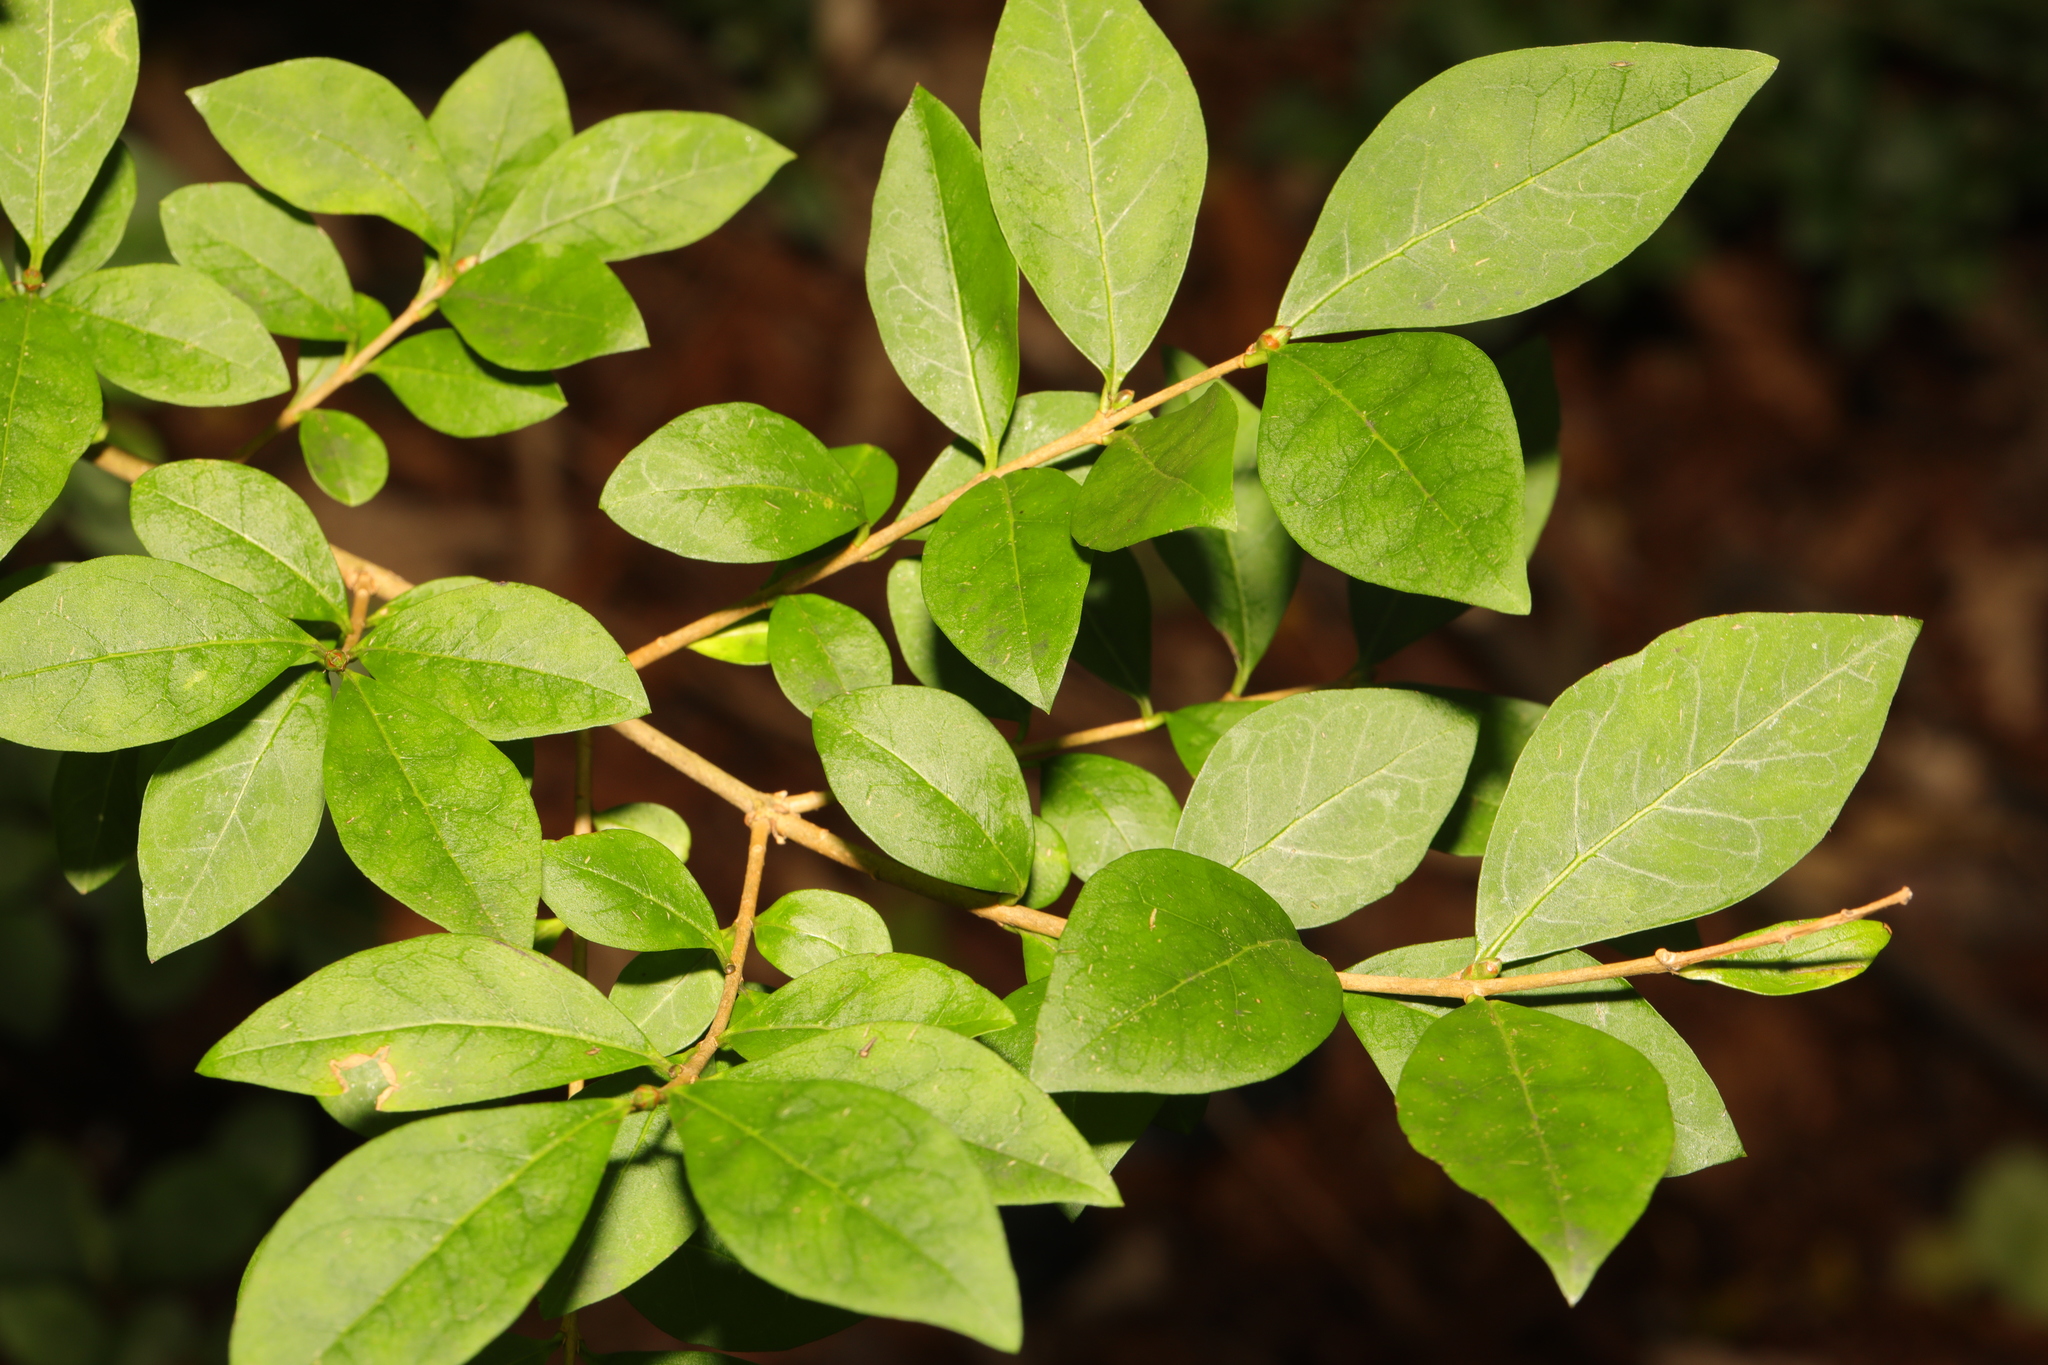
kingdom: Plantae
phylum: Tracheophyta
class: Magnoliopsida
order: Lamiales
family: Oleaceae
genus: Ligustrum
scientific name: Ligustrum ovalifolium
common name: California privet
